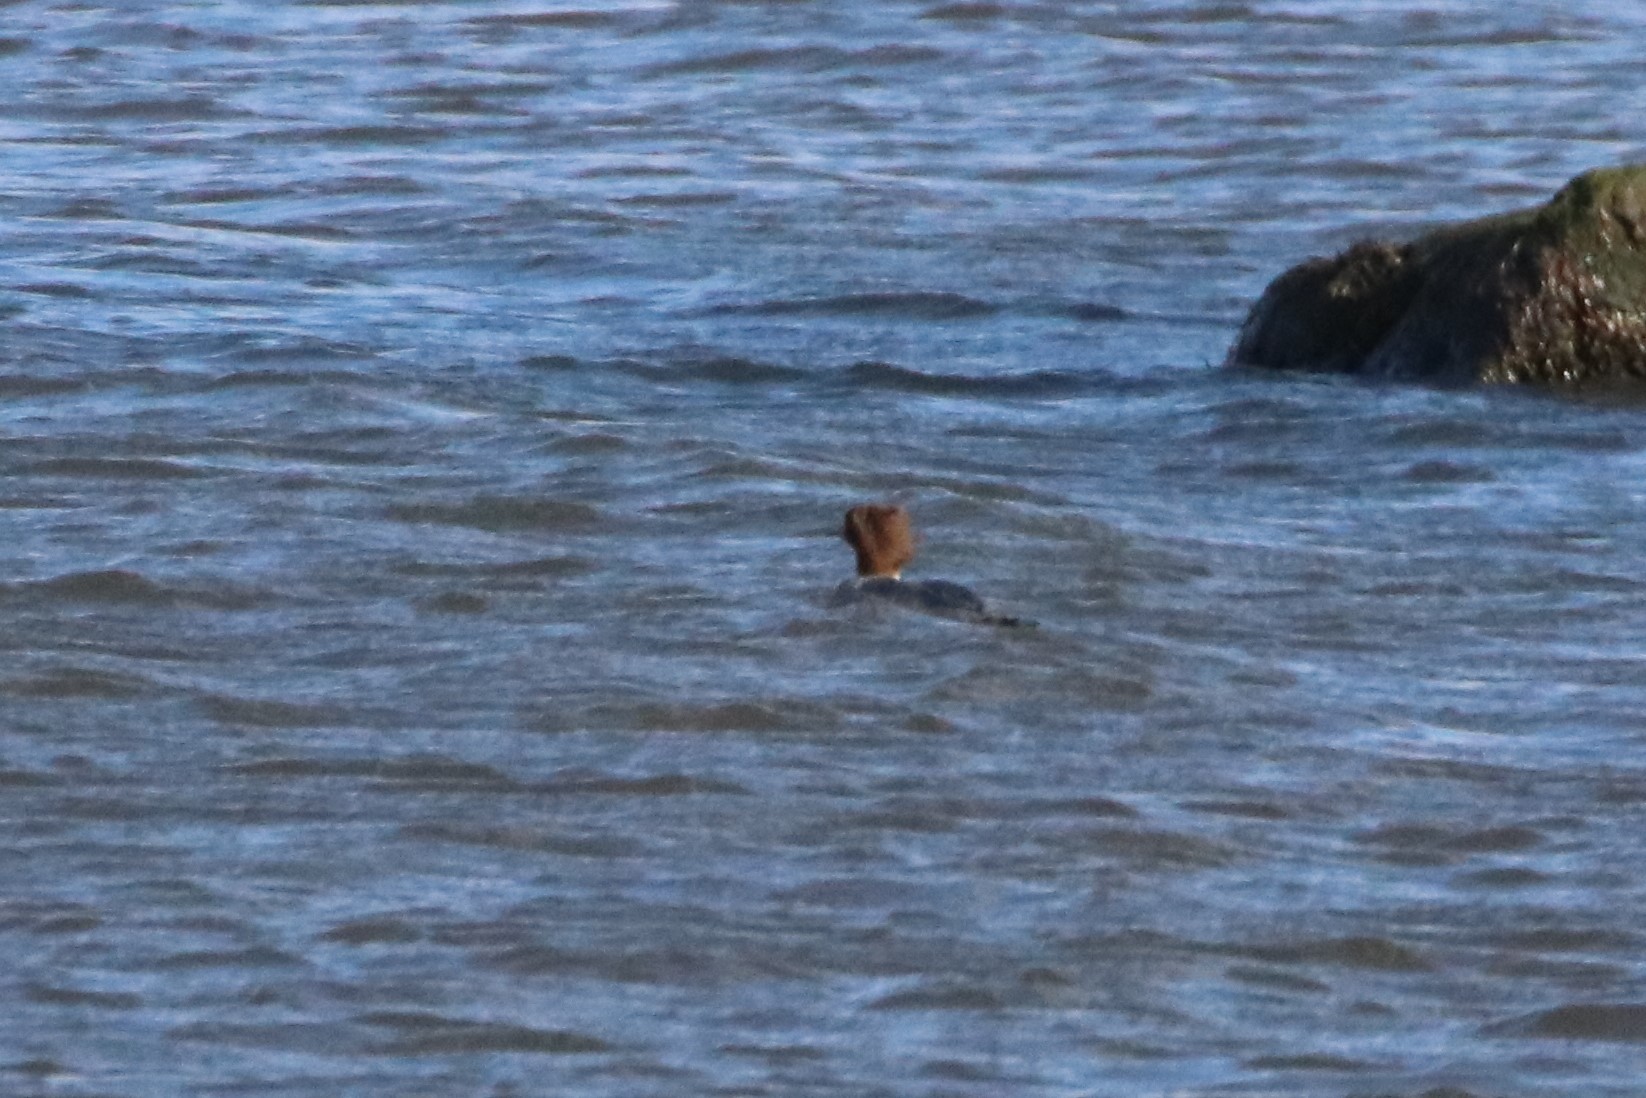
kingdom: Animalia
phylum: Chordata
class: Aves
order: Anseriformes
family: Anatidae
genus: Mergus
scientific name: Mergus merganser
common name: Common merganser
